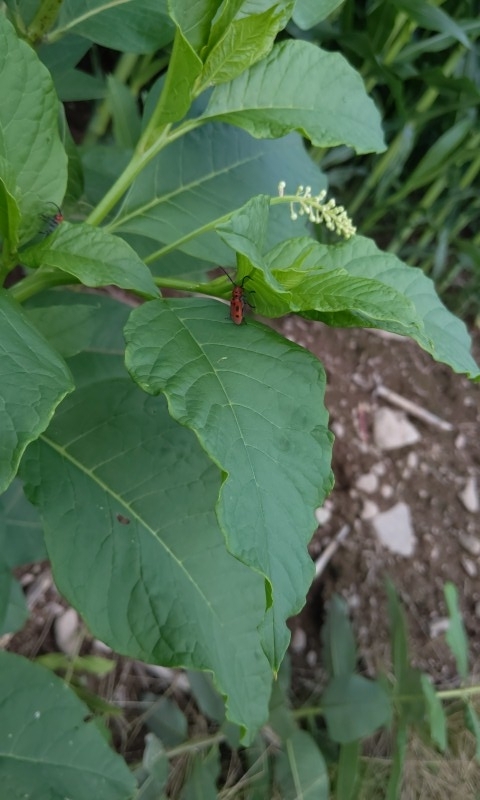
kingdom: Animalia
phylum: Arthropoda
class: Insecta
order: Coleoptera
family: Cerambycidae
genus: Tetraopes
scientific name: Tetraopes tetrophthalmus
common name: Red milkweed beetle
